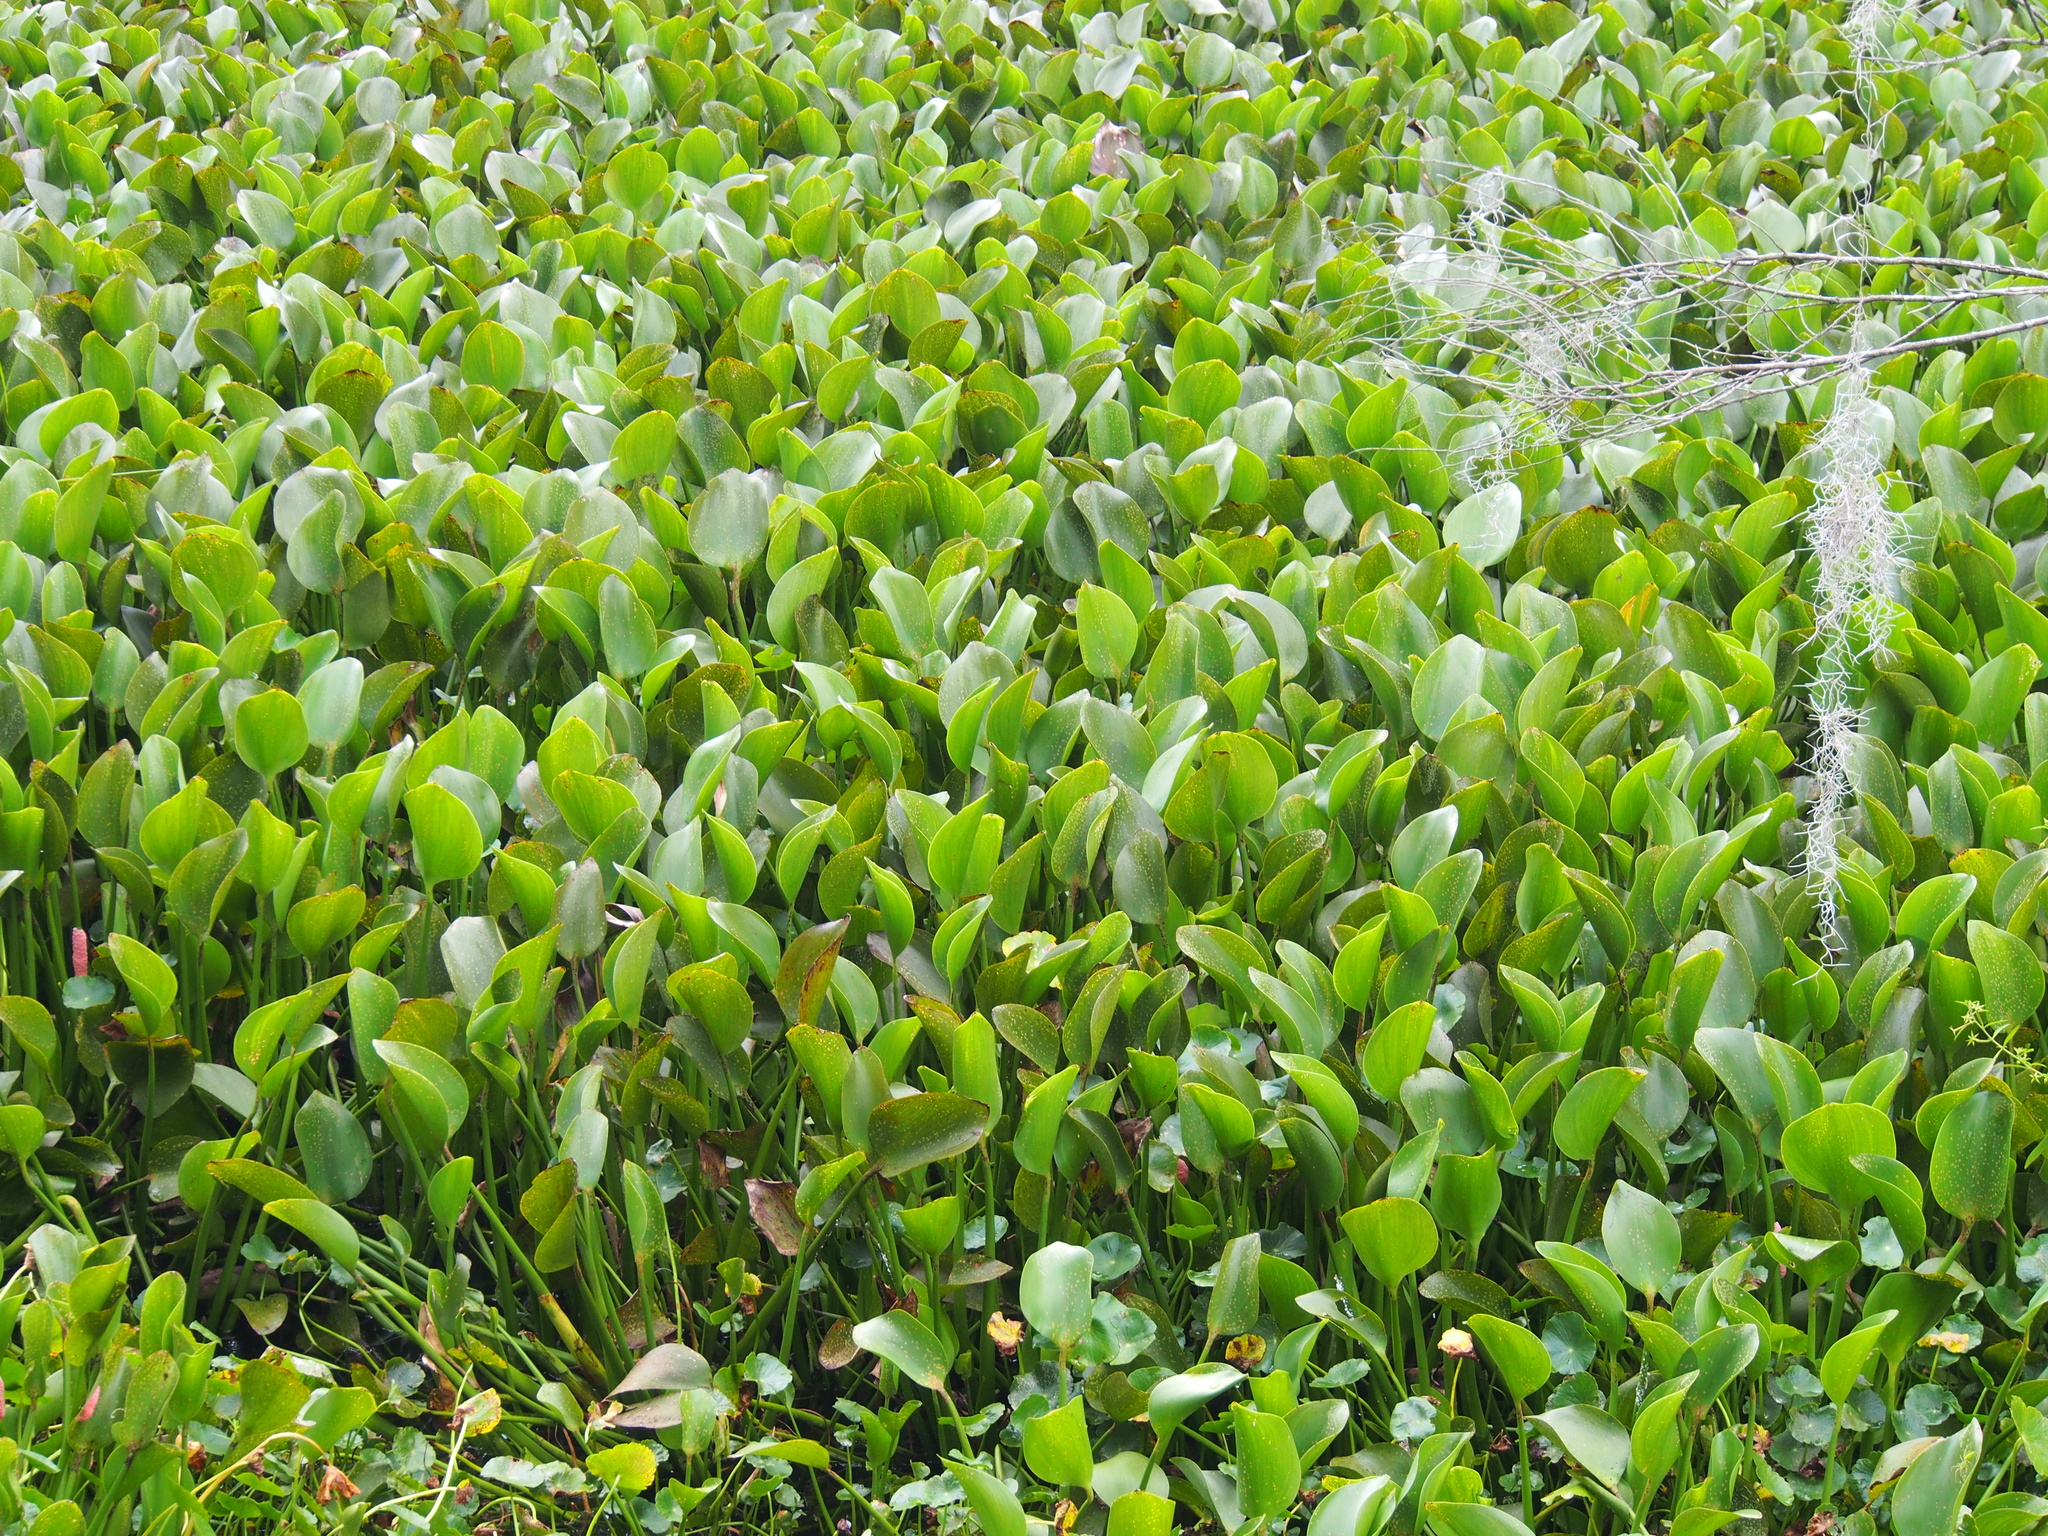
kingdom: Plantae
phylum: Tracheophyta
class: Liliopsida
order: Commelinales
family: Pontederiaceae
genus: Pontederia
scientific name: Pontederia crassipes
